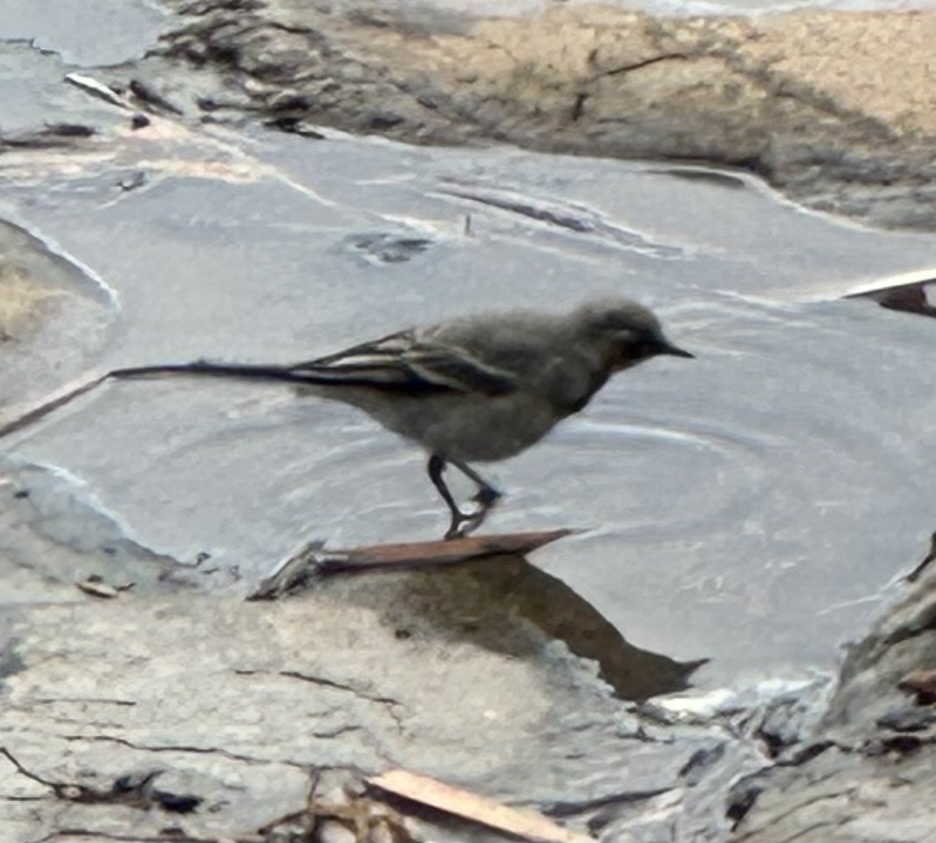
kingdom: Animalia
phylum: Chordata
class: Aves
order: Passeriformes
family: Motacillidae
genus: Motacilla
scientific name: Motacilla alba
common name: White wagtail
